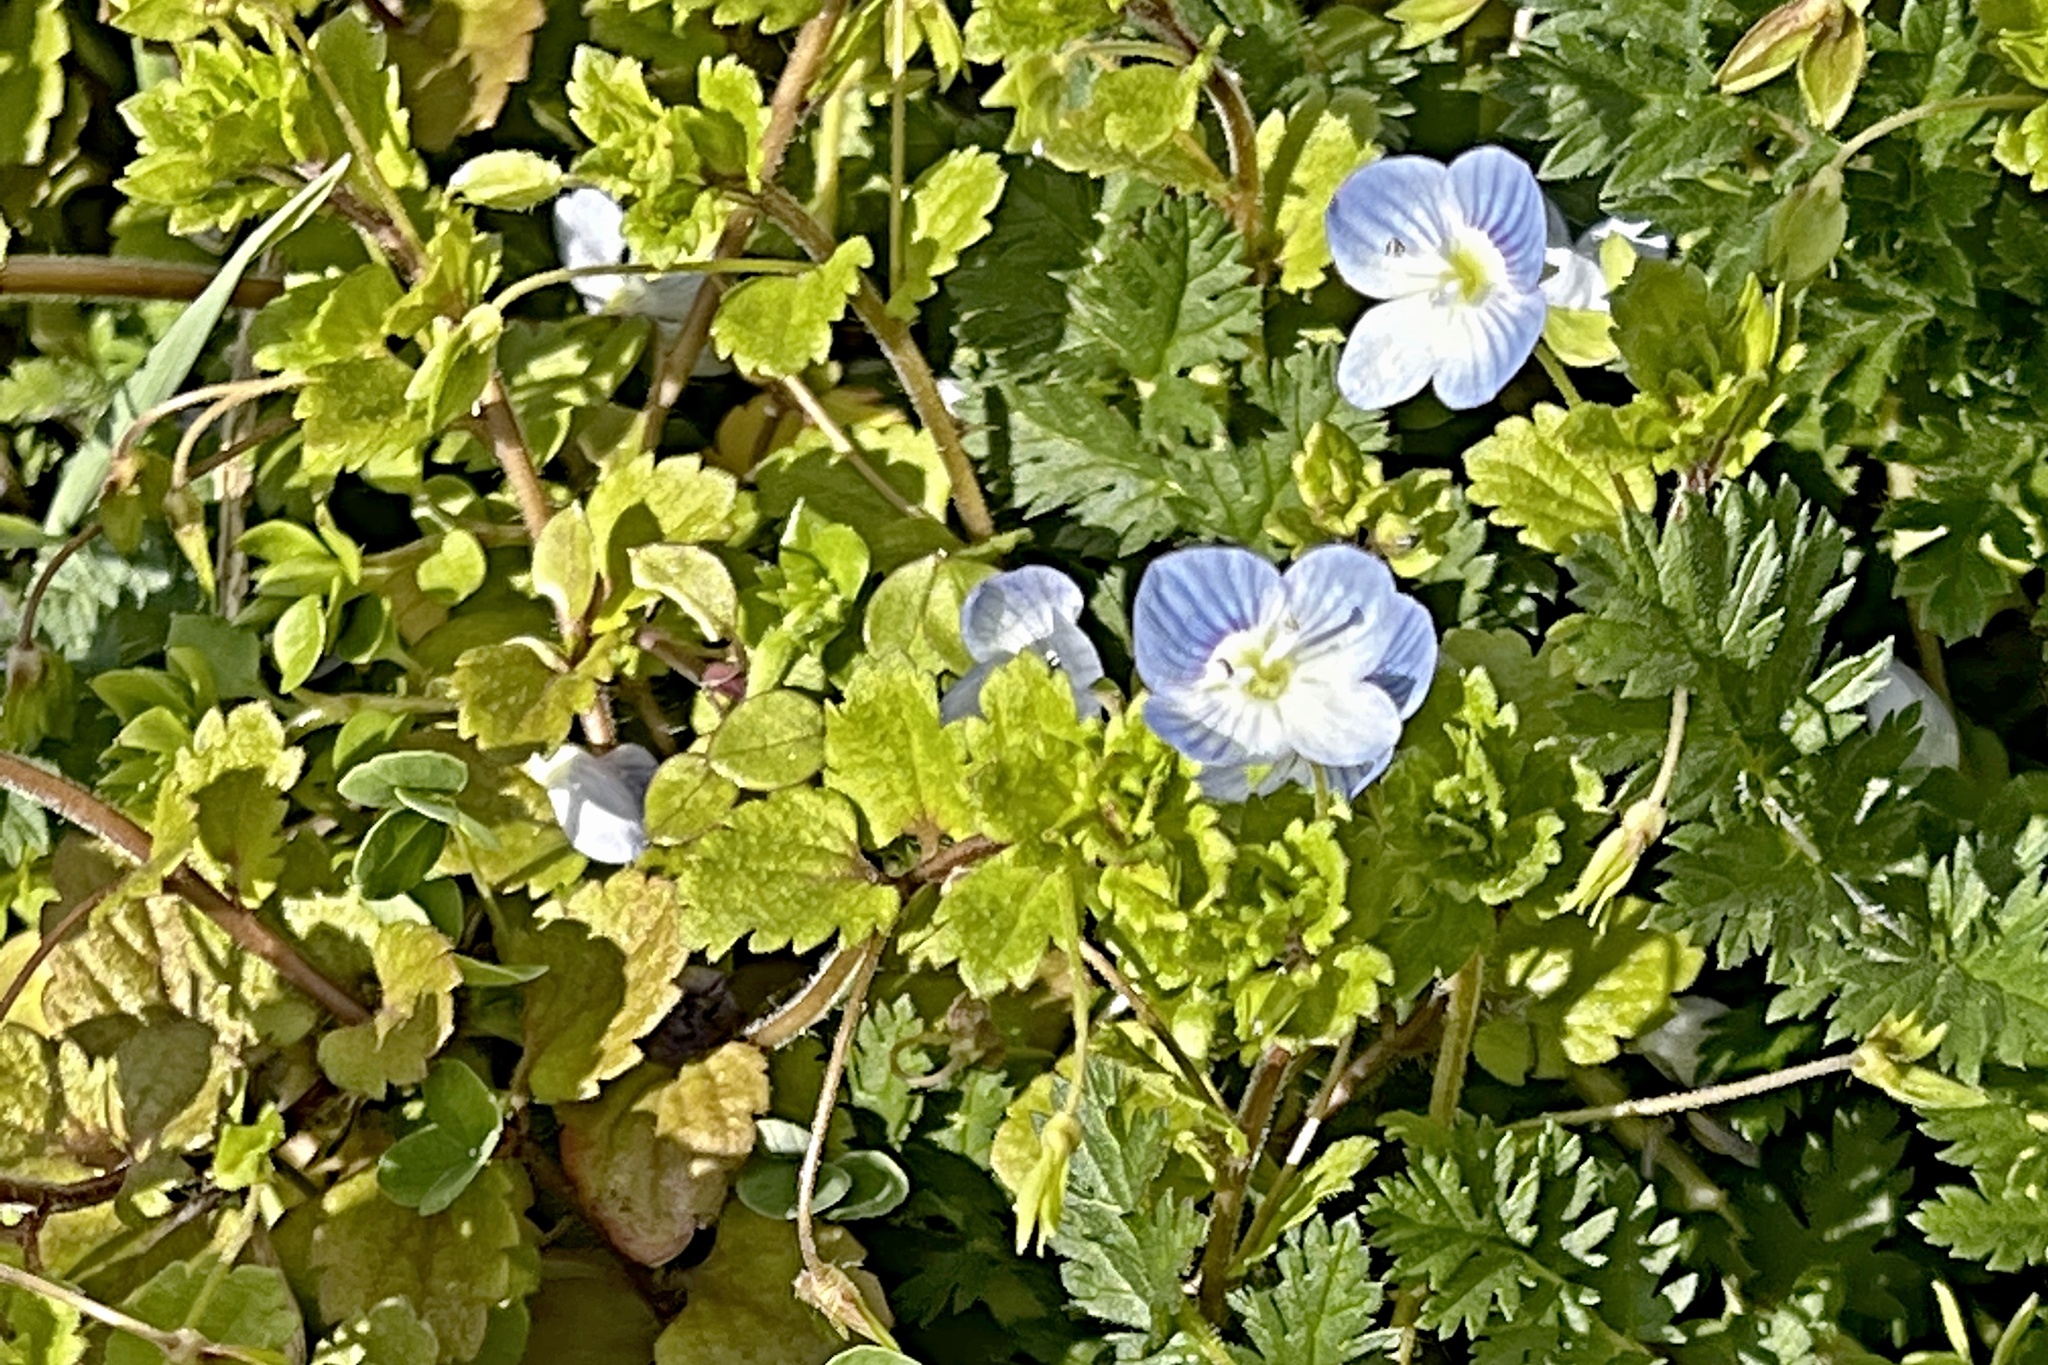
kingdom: Plantae
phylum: Tracheophyta
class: Magnoliopsida
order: Lamiales
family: Plantaginaceae
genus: Veronica
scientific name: Veronica persica
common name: Common field-speedwell
